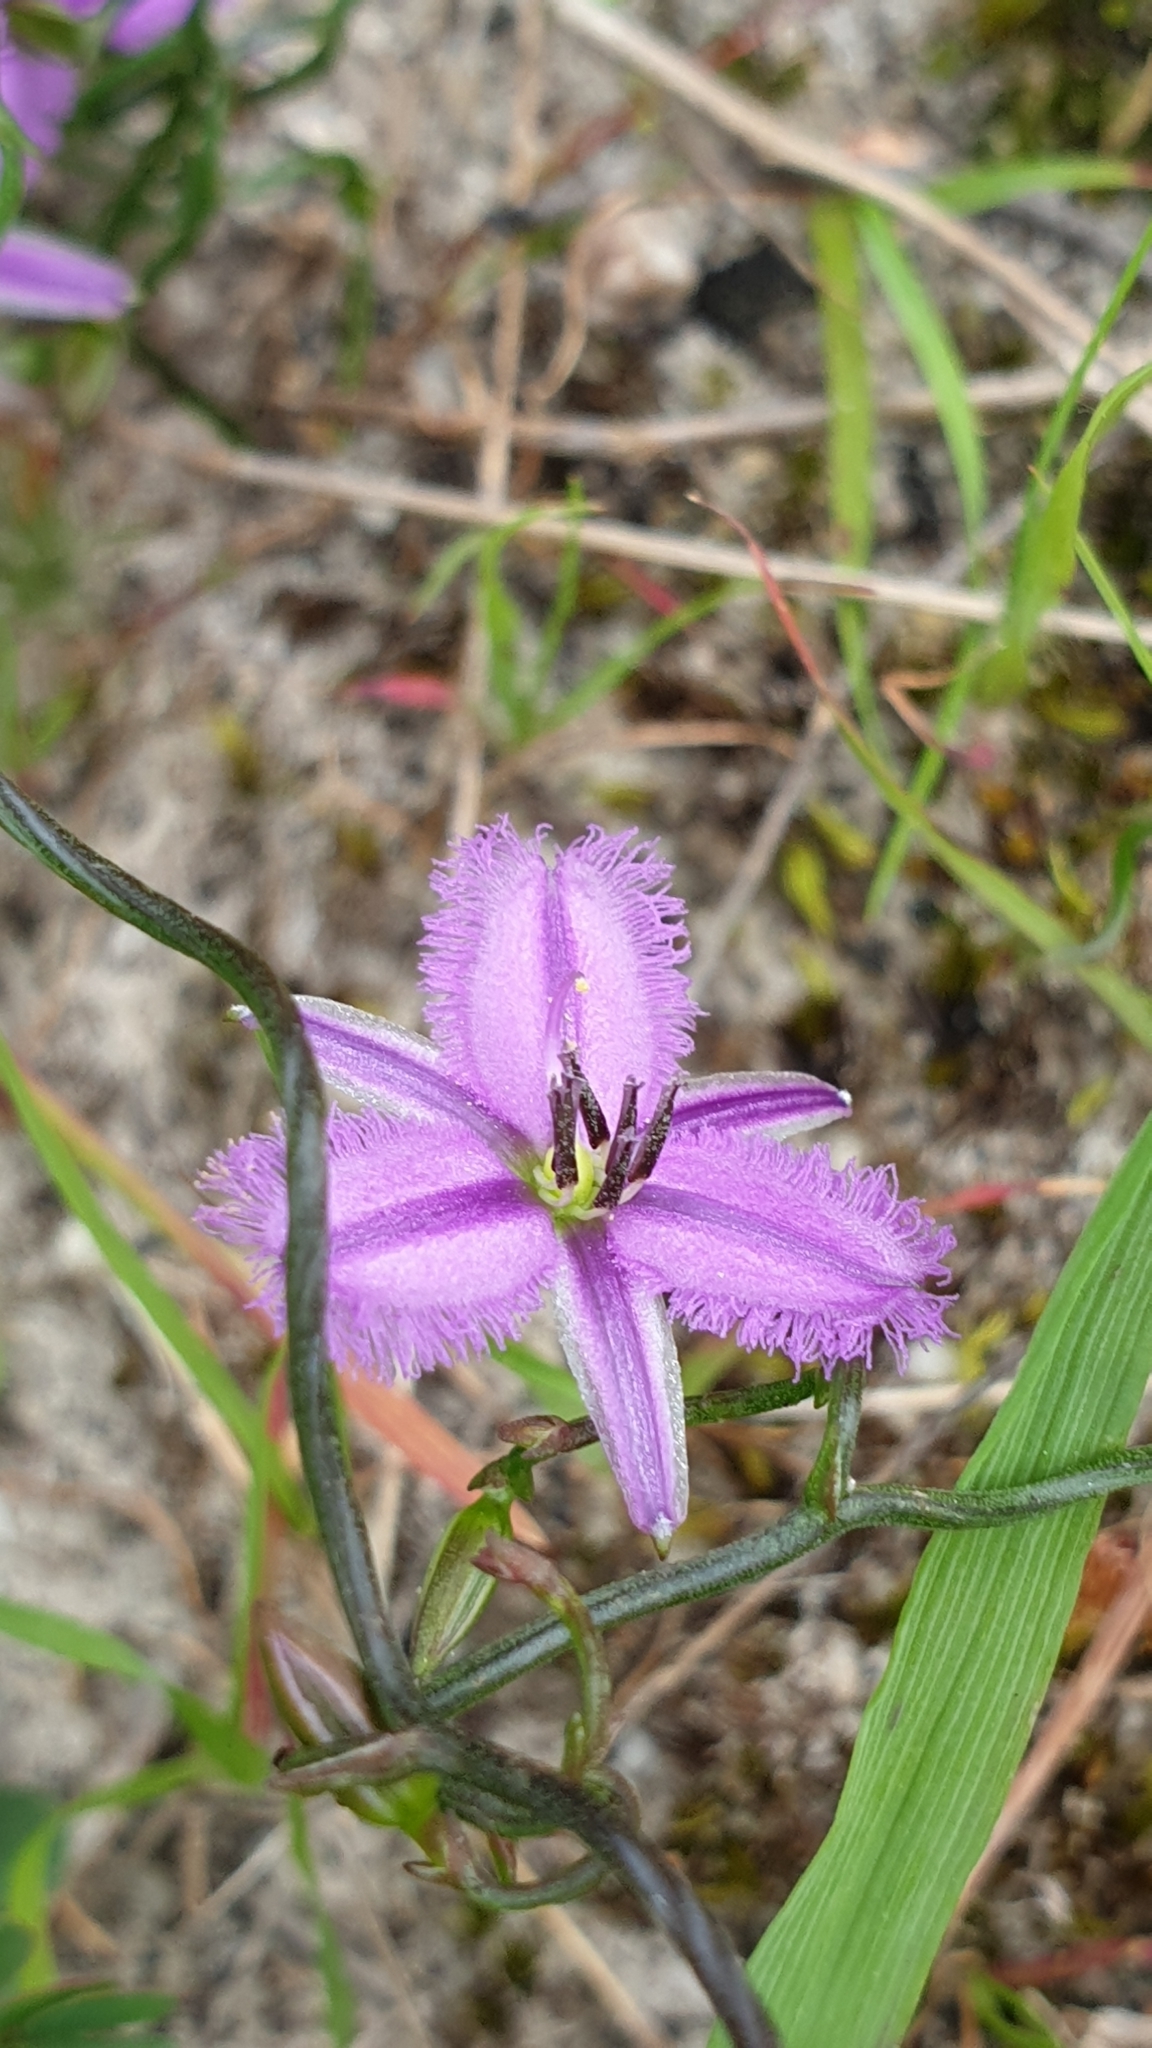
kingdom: Plantae
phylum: Tracheophyta
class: Liliopsida
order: Asparagales
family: Asparagaceae
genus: Thysanotus
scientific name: Thysanotus patersonii
